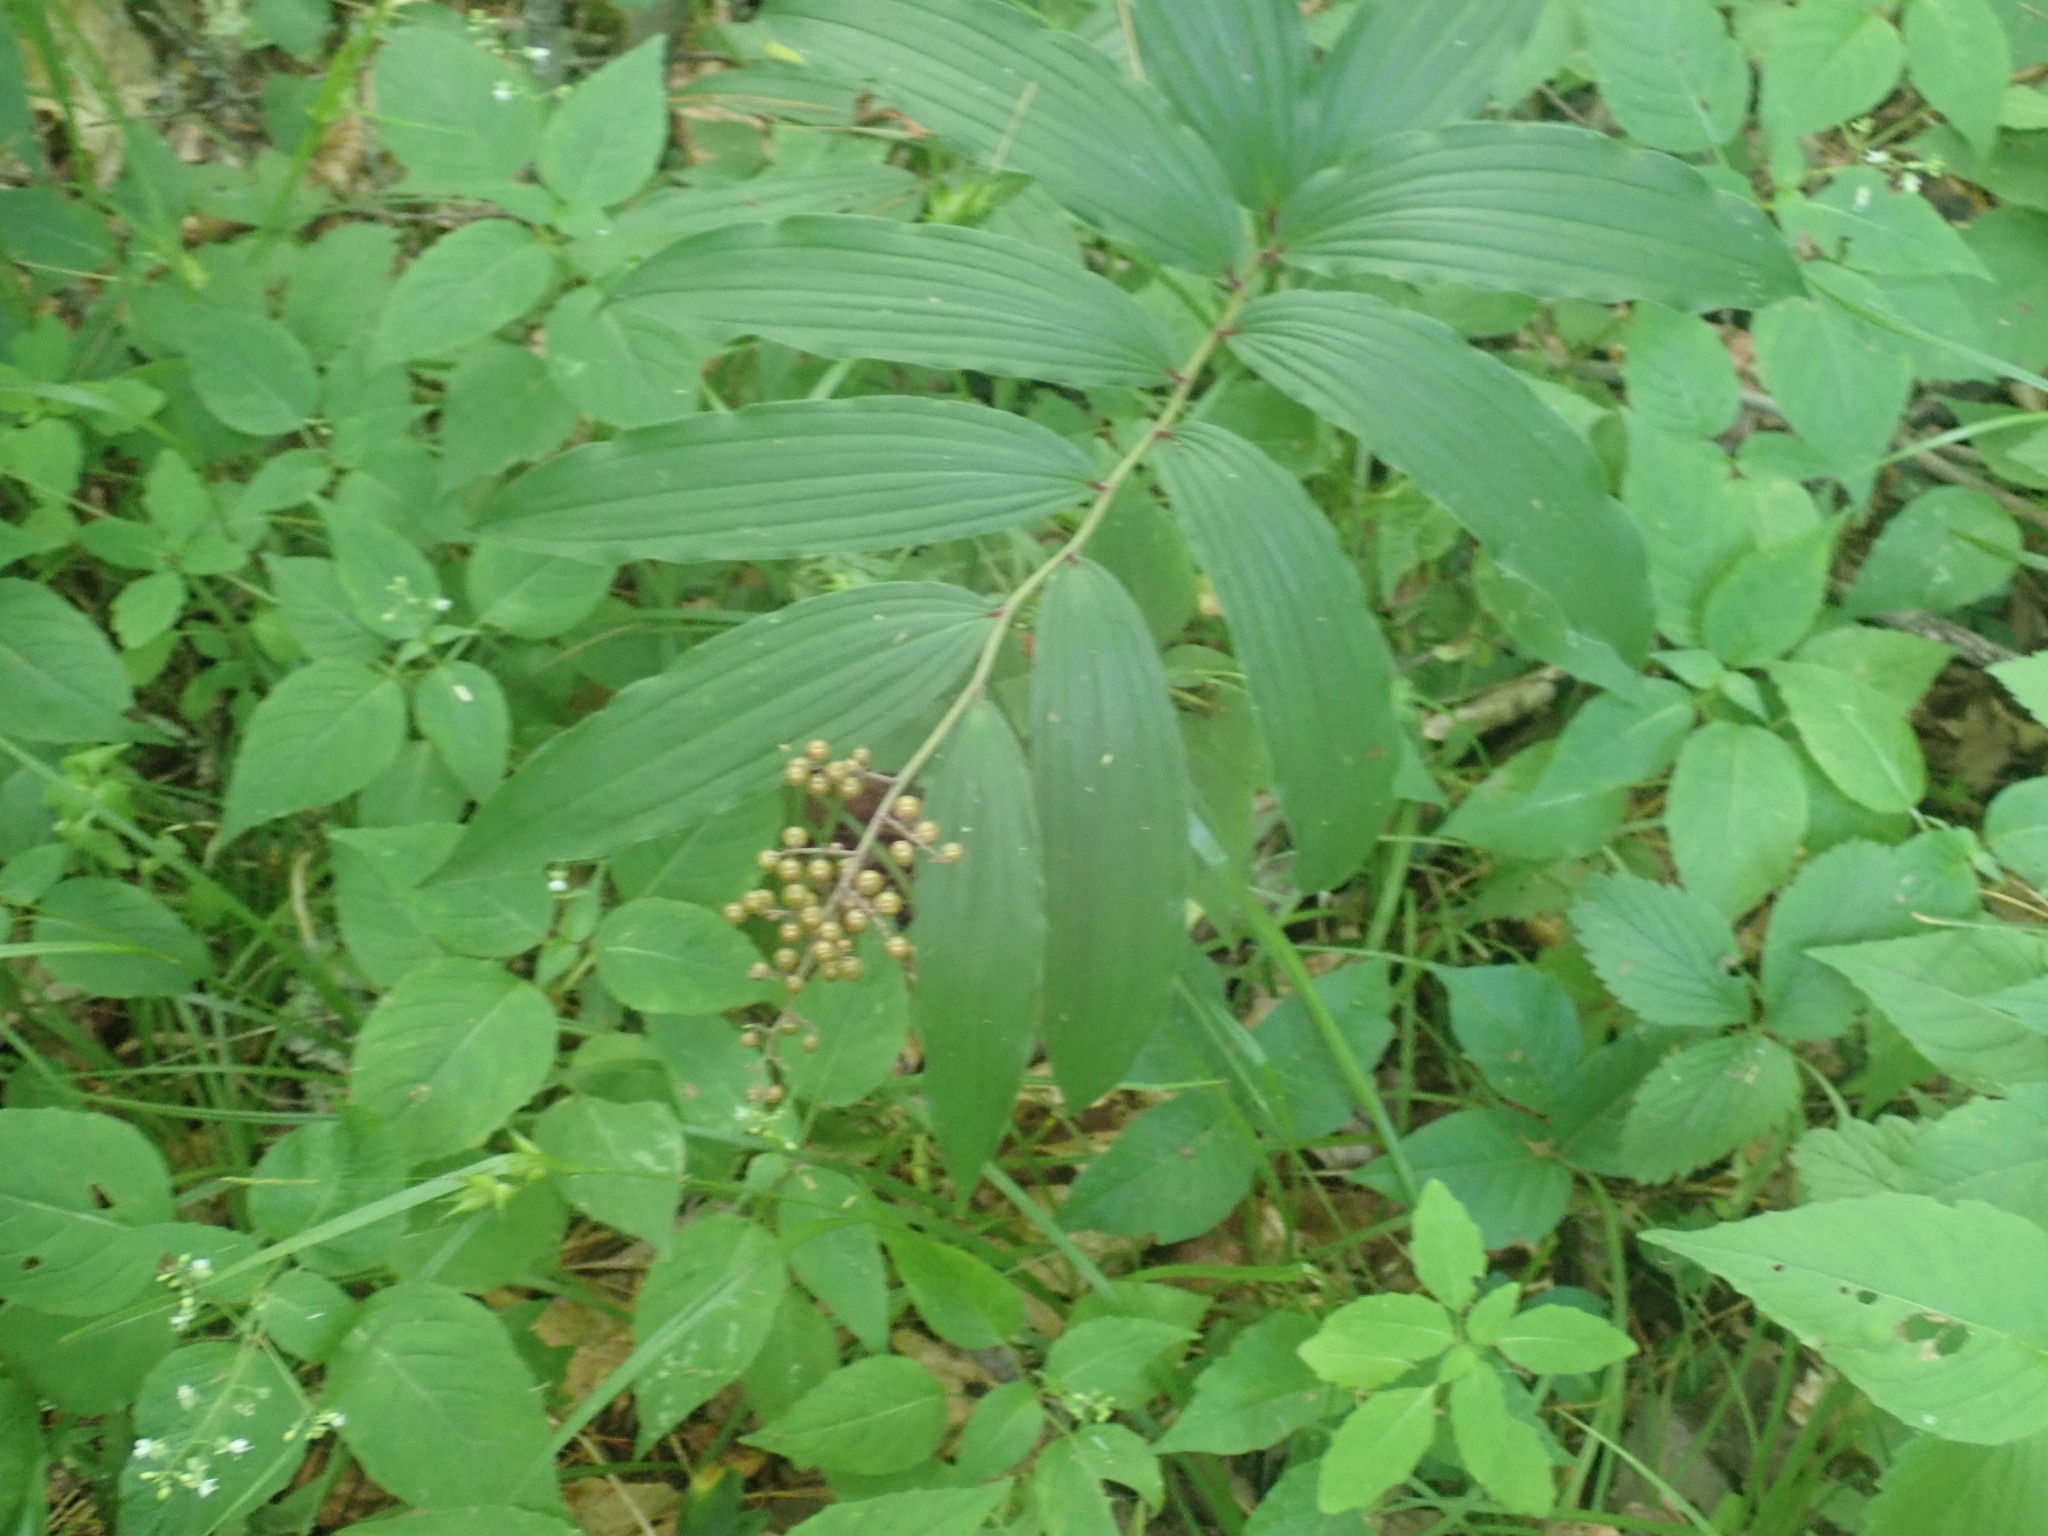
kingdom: Plantae
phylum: Tracheophyta
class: Liliopsida
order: Asparagales
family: Asparagaceae
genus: Maianthemum
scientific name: Maianthemum racemosum
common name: False spikenard
